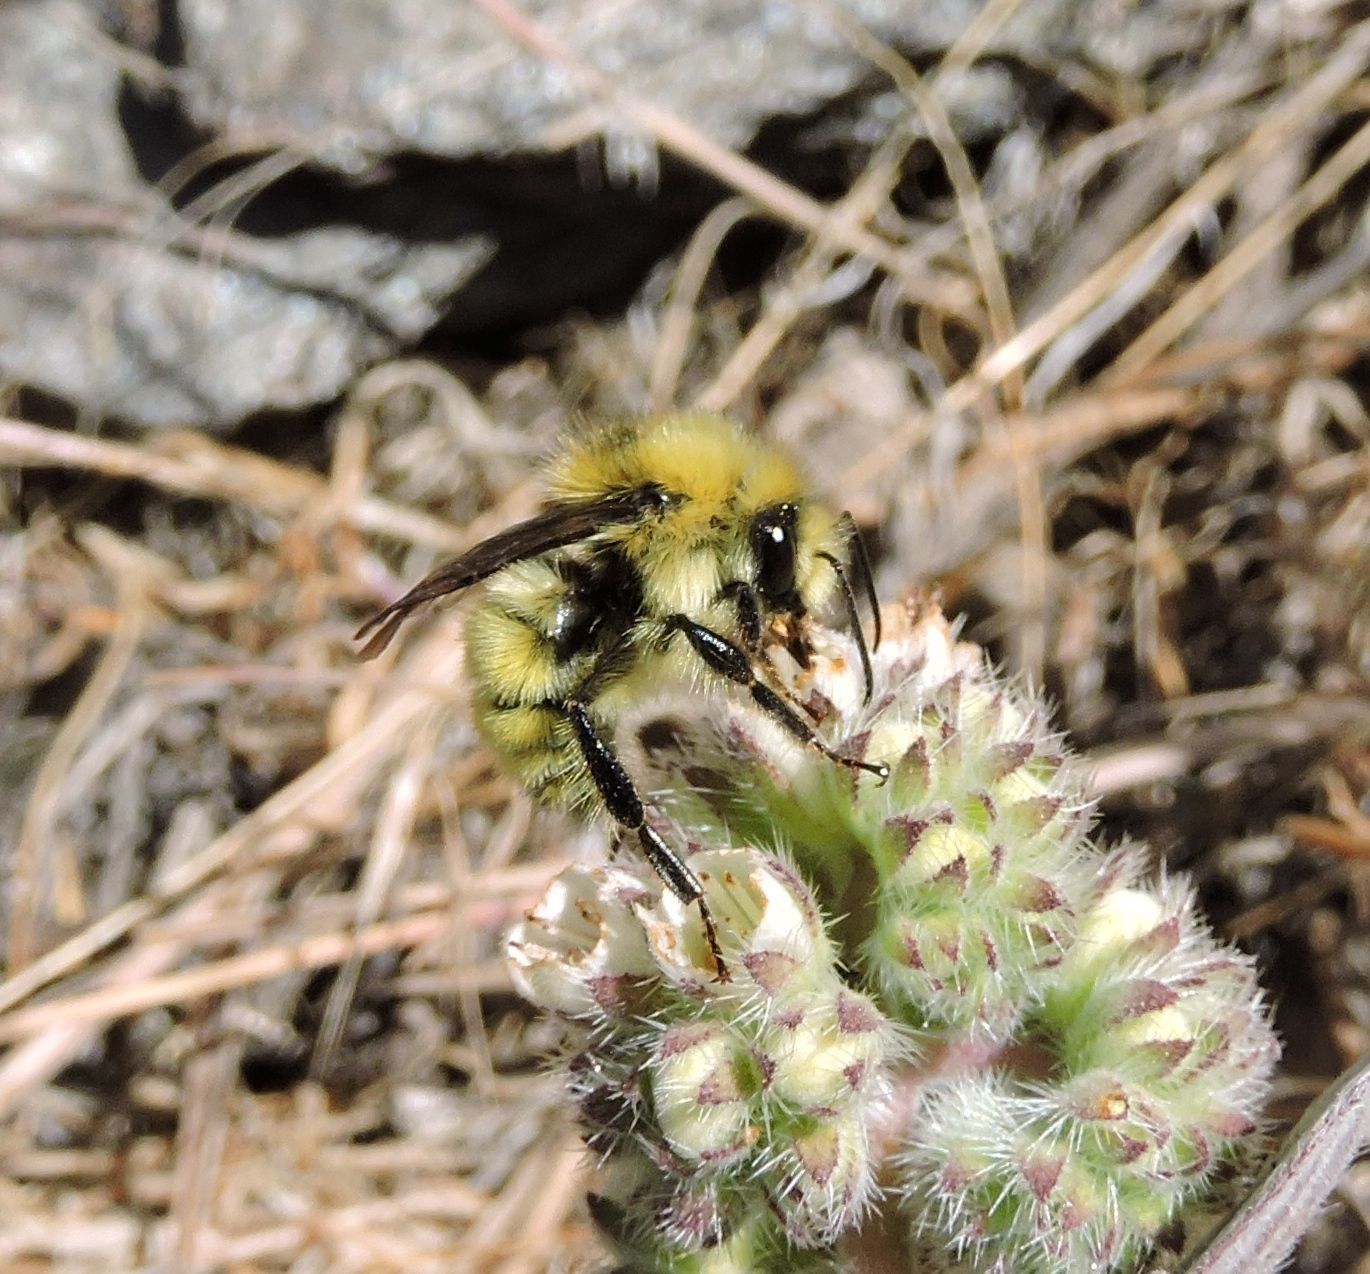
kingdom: Animalia
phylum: Arthropoda
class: Insecta
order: Hymenoptera
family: Apidae
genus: Bombus
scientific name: Bombus vandykei
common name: Van dyke bumble bee
